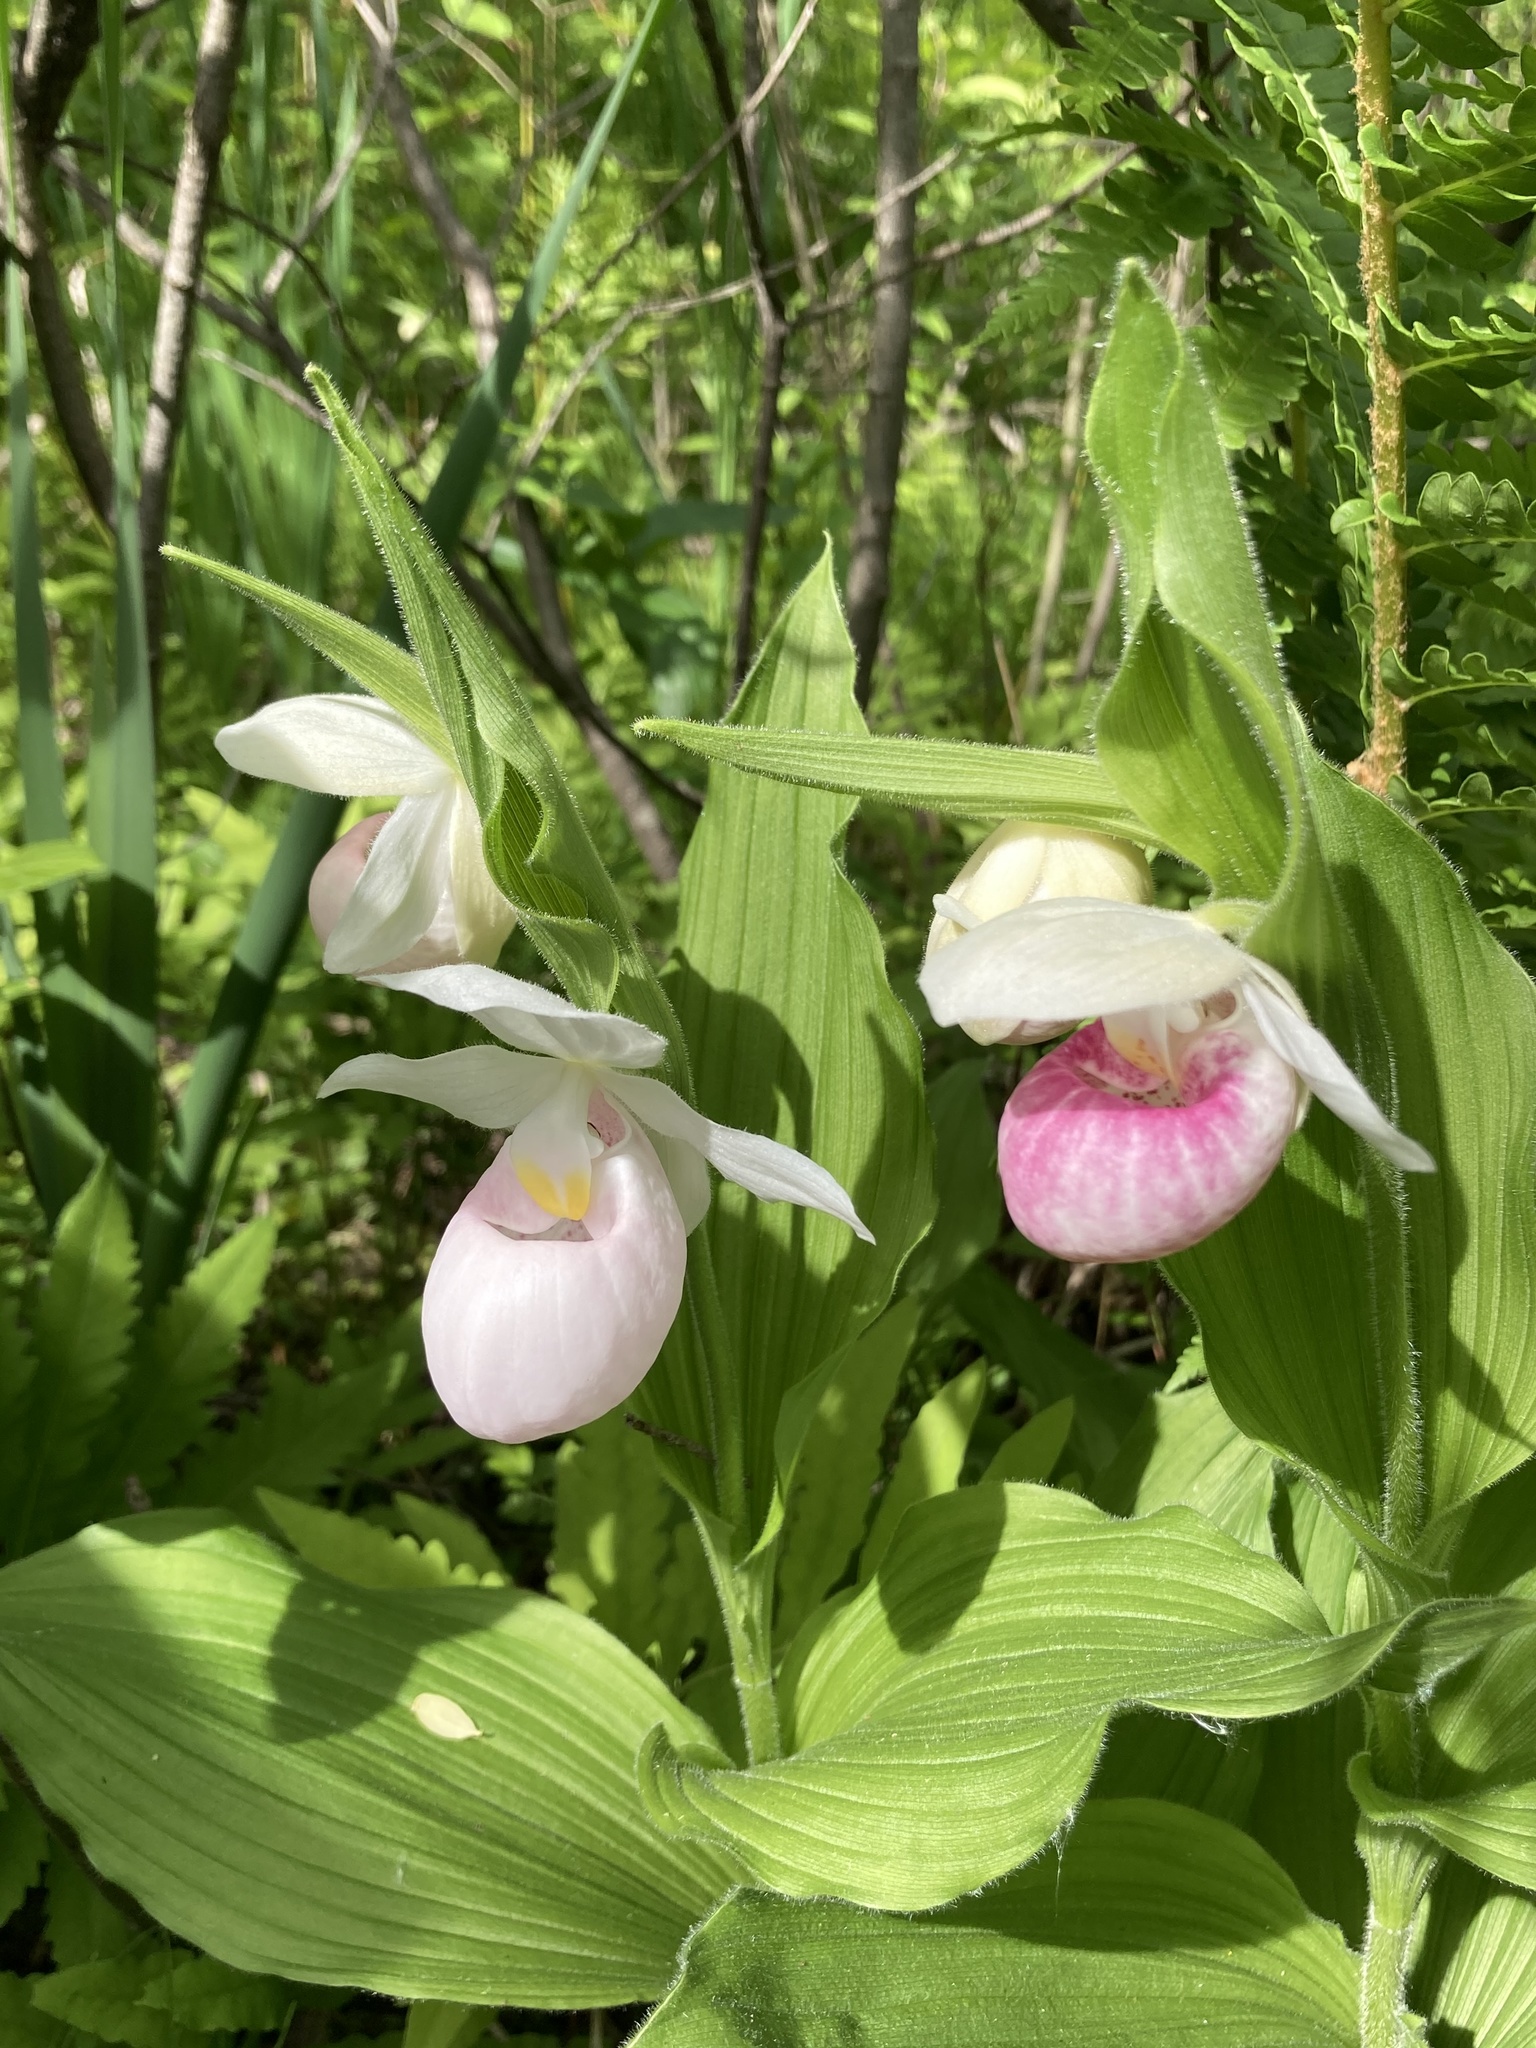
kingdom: Plantae
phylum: Tracheophyta
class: Liliopsida
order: Asparagales
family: Orchidaceae
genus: Cypripedium
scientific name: Cypripedium reginae
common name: Queen lady's-slipper
